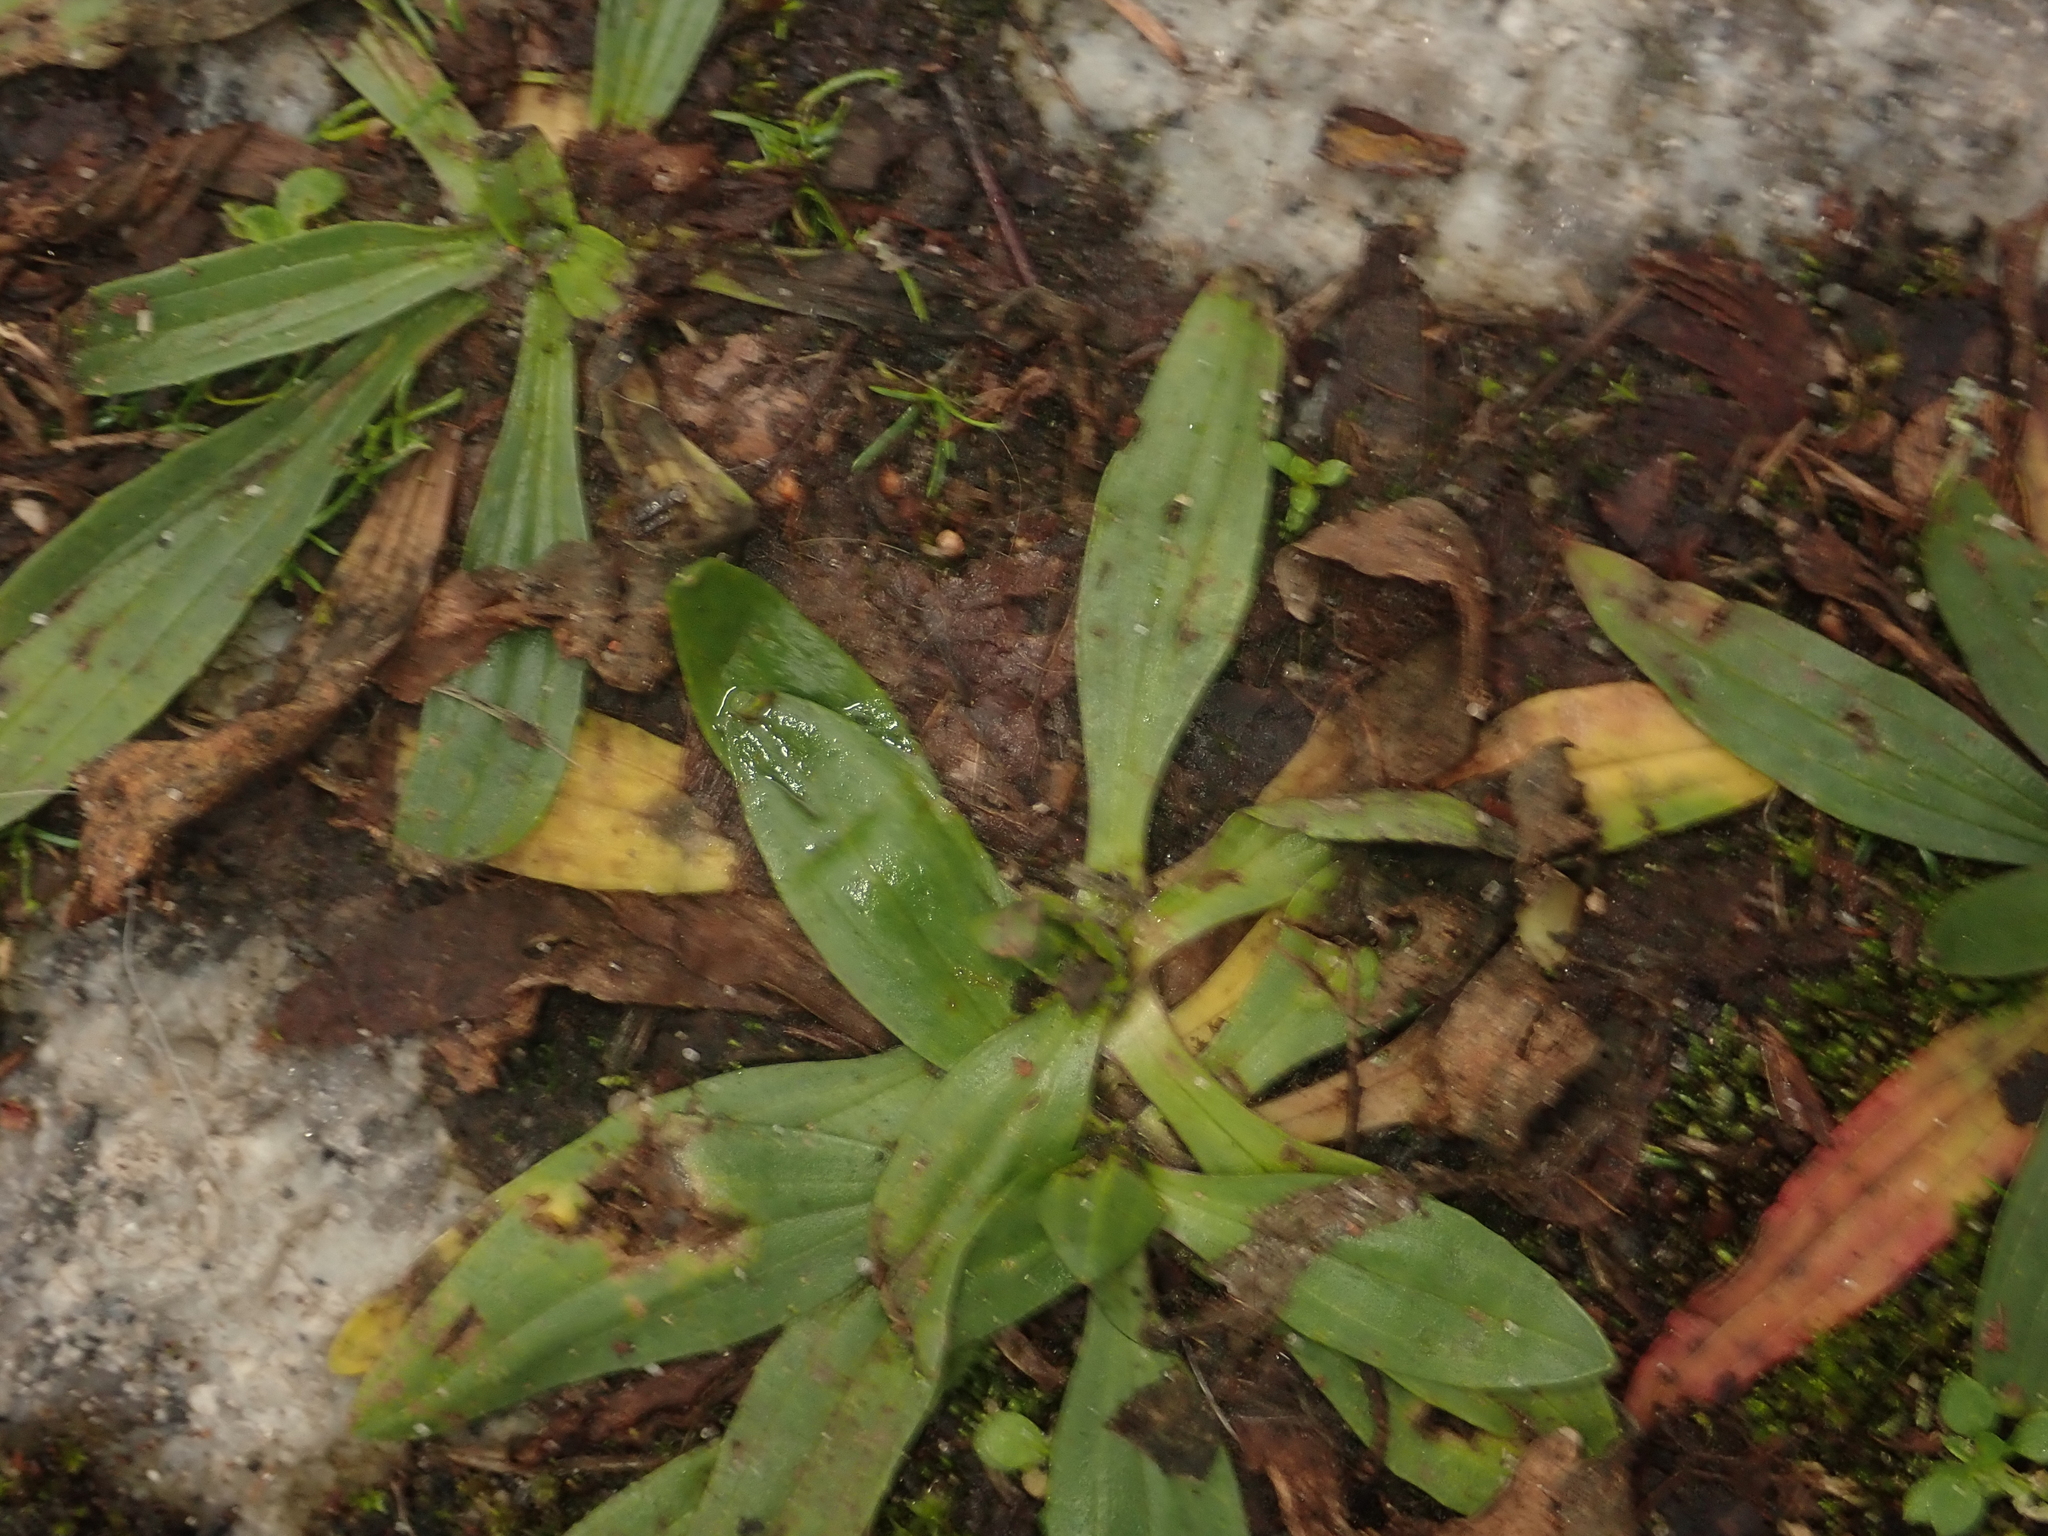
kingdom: Plantae
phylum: Tracheophyta
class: Magnoliopsida
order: Lamiales
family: Plantaginaceae
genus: Plantago
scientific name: Plantago lanceolata
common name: Ribwort plantain
